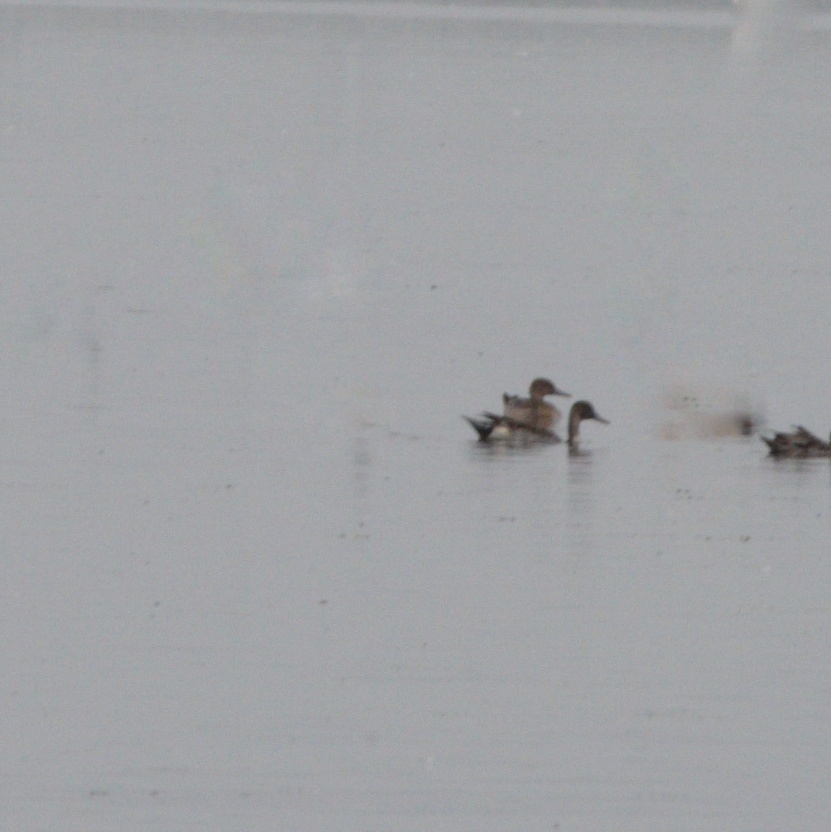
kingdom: Animalia
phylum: Chordata
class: Aves
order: Anseriformes
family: Anatidae
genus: Anas
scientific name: Anas acuta
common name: Northern pintail
